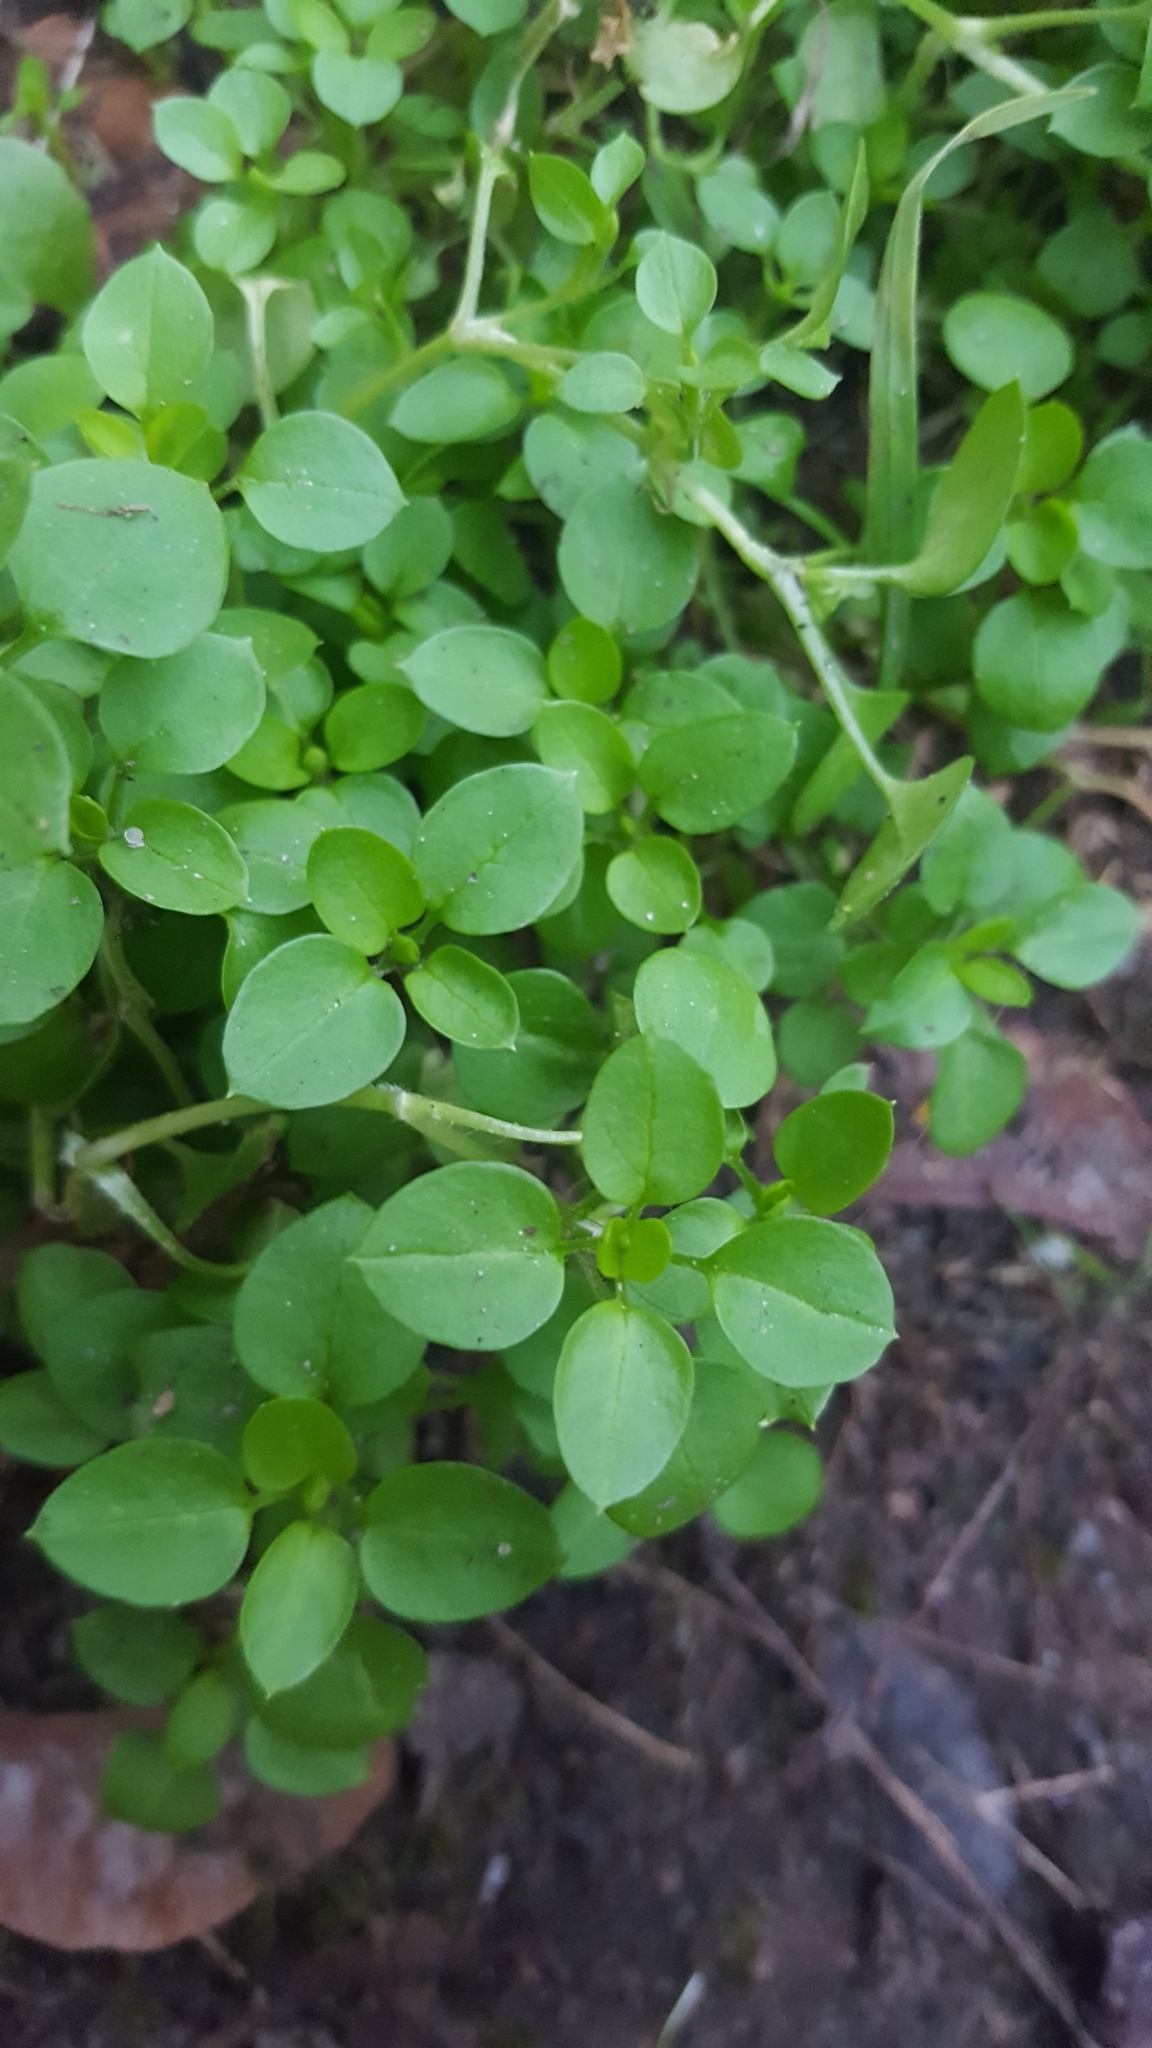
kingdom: Plantae
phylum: Tracheophyta
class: Magnoliopsida
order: Caryophyllales
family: Caryophyllaceae
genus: Stellaria
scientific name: Stellaria media
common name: Common chickweed
